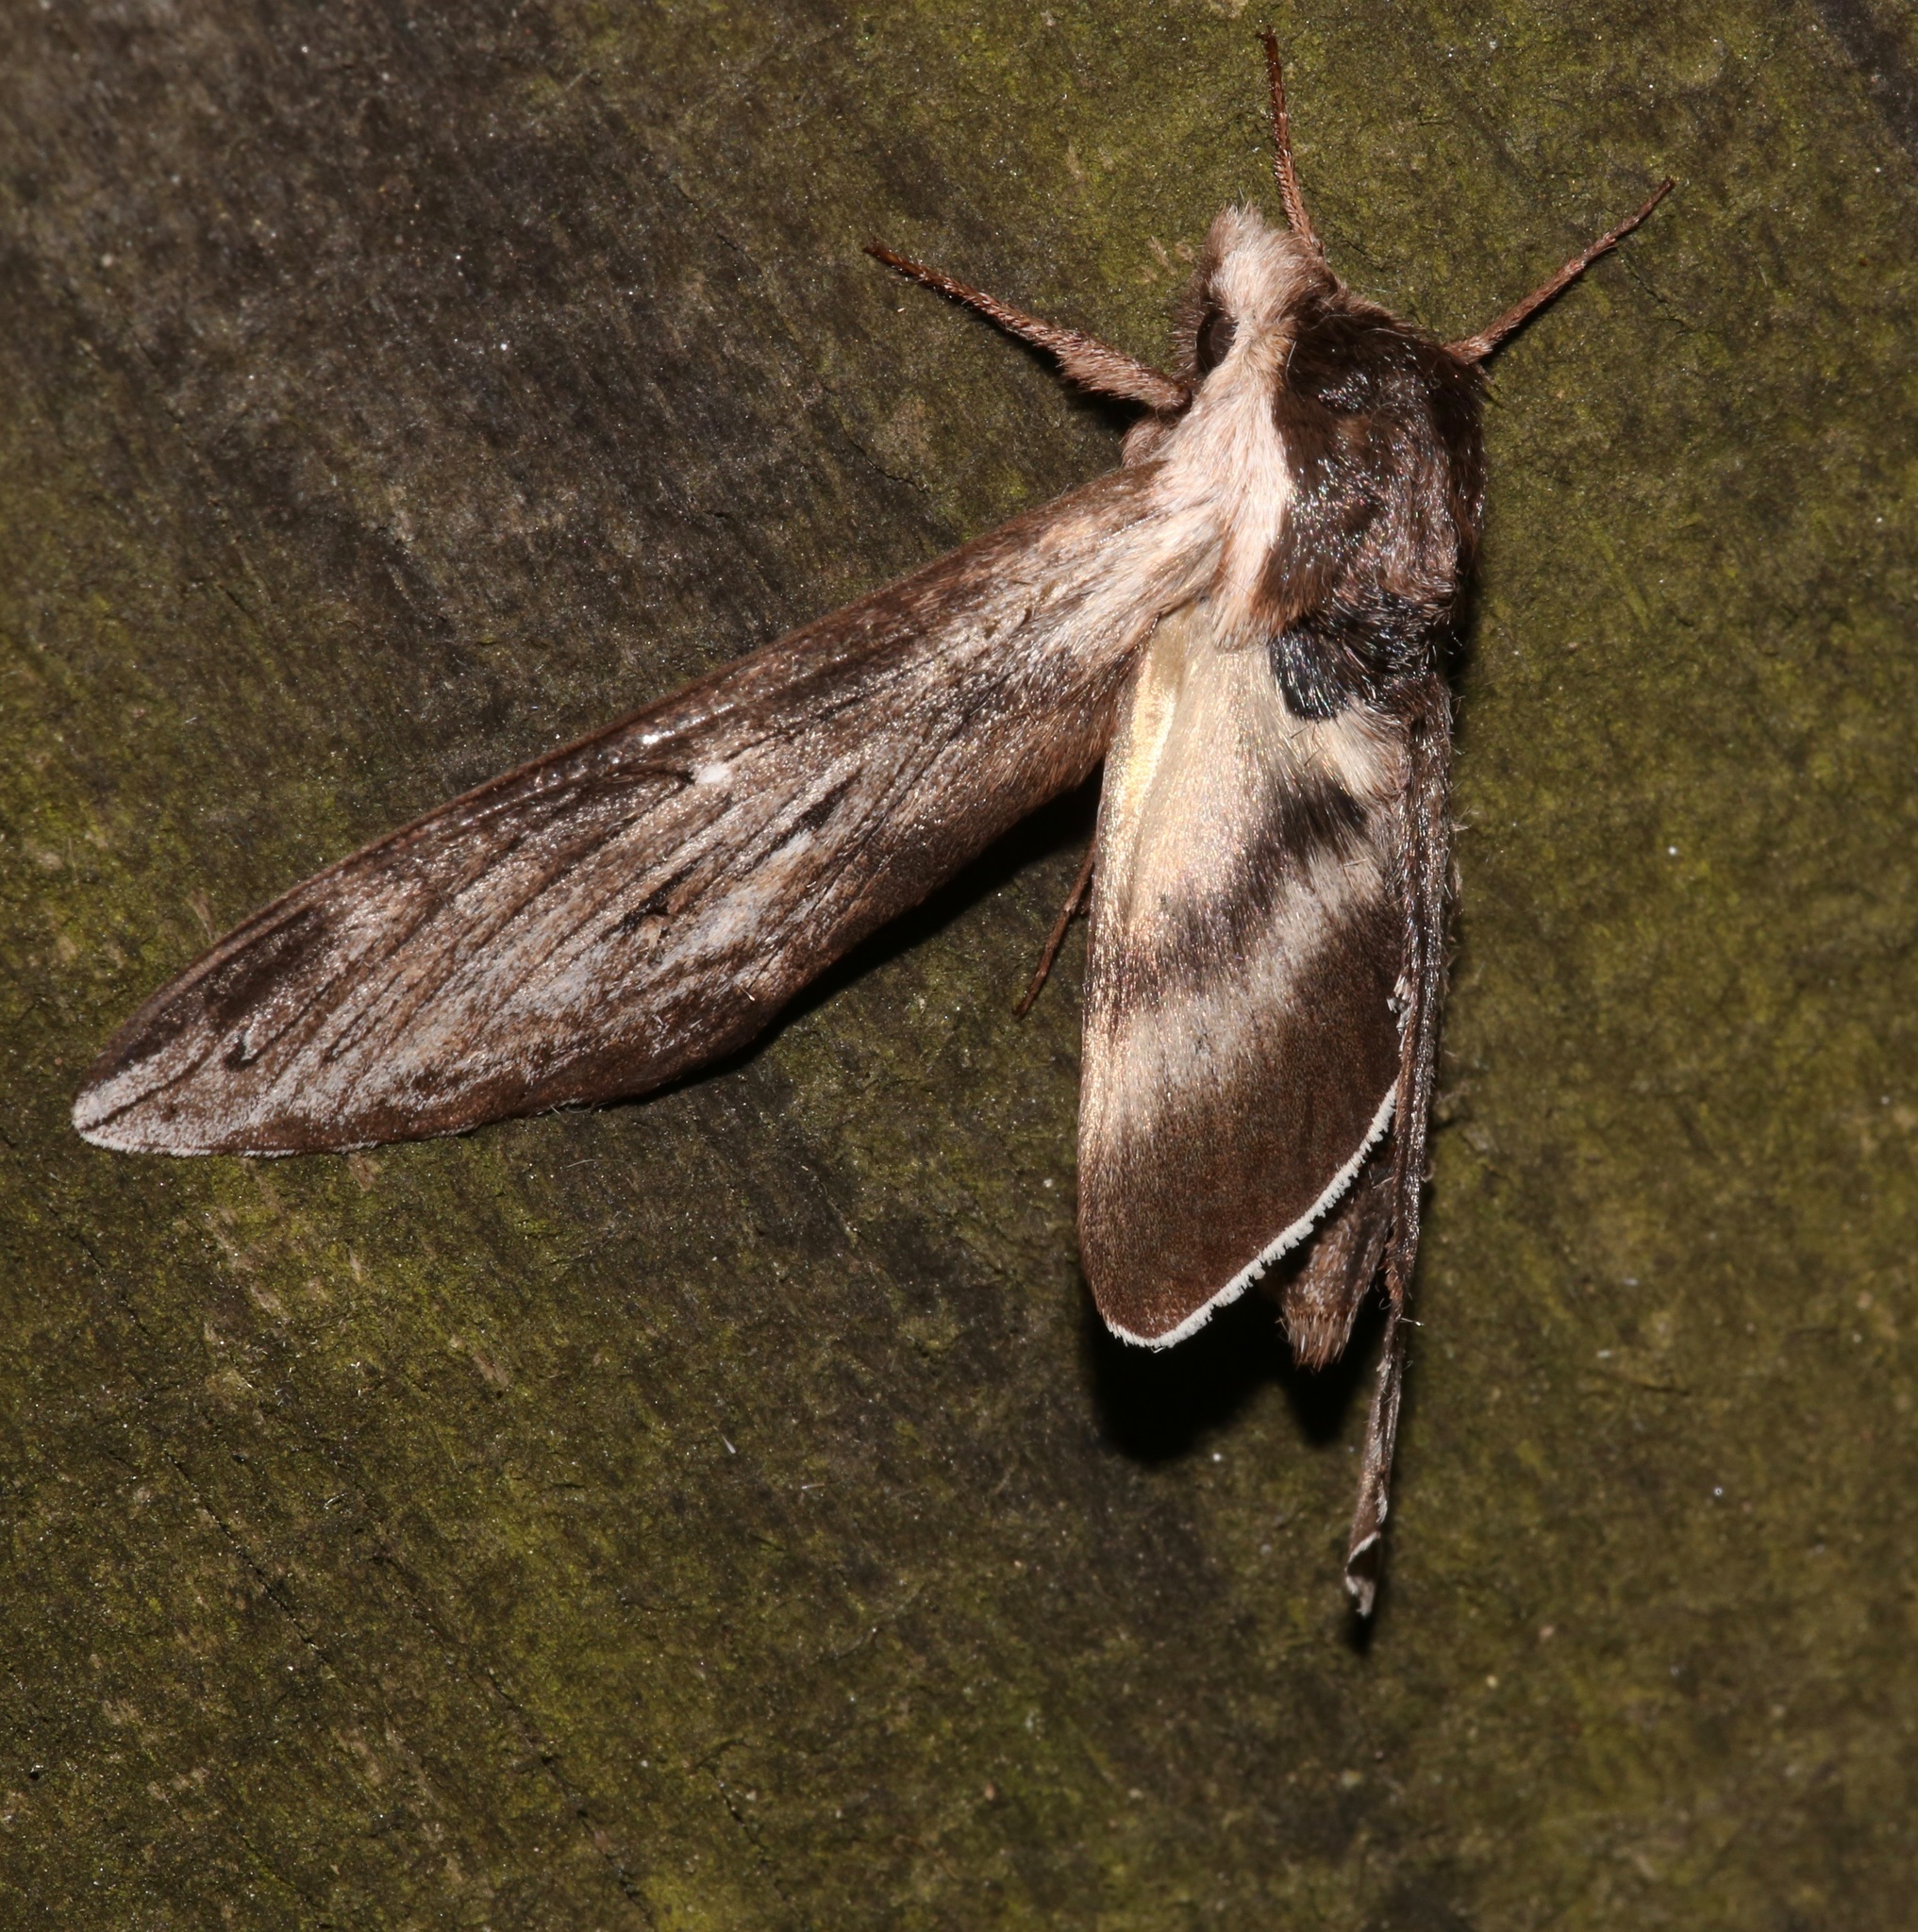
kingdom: Animalia
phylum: Arthropoda
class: Insecta
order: Lepidoptera
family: Sphingidae
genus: Sphinx
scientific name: Sphinx poecila
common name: Northern apple sphinx
